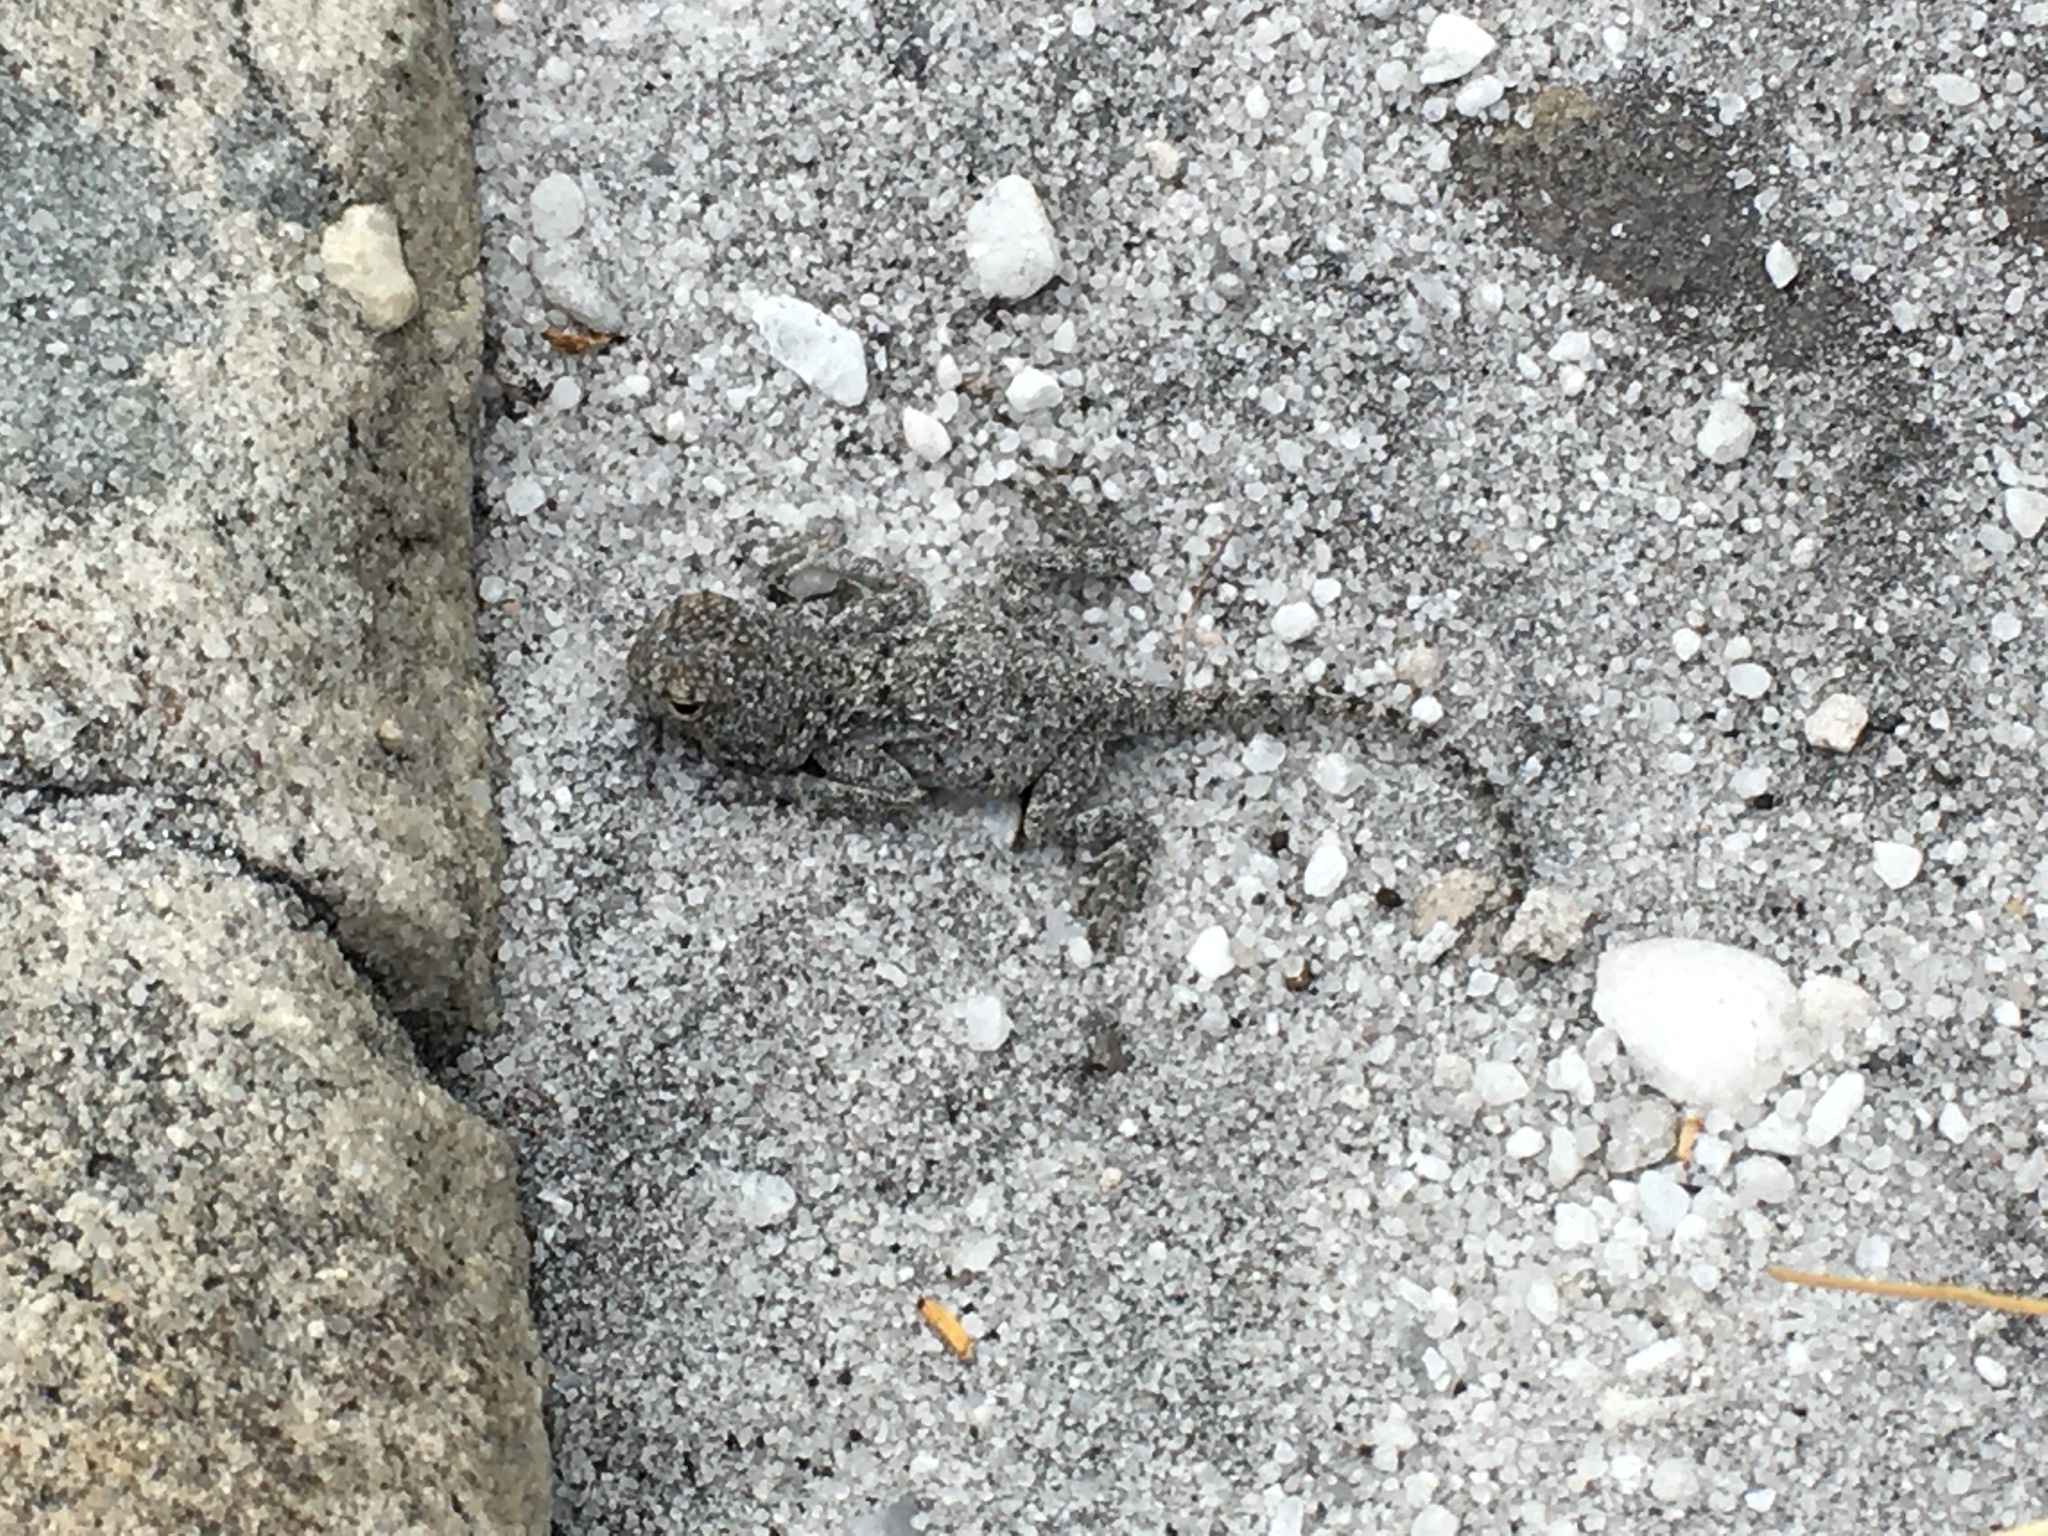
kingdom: Animalia
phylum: Chordata
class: Squamata
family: Agamidae
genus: Agama
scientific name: Agama atra
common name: Southern african rock agama
